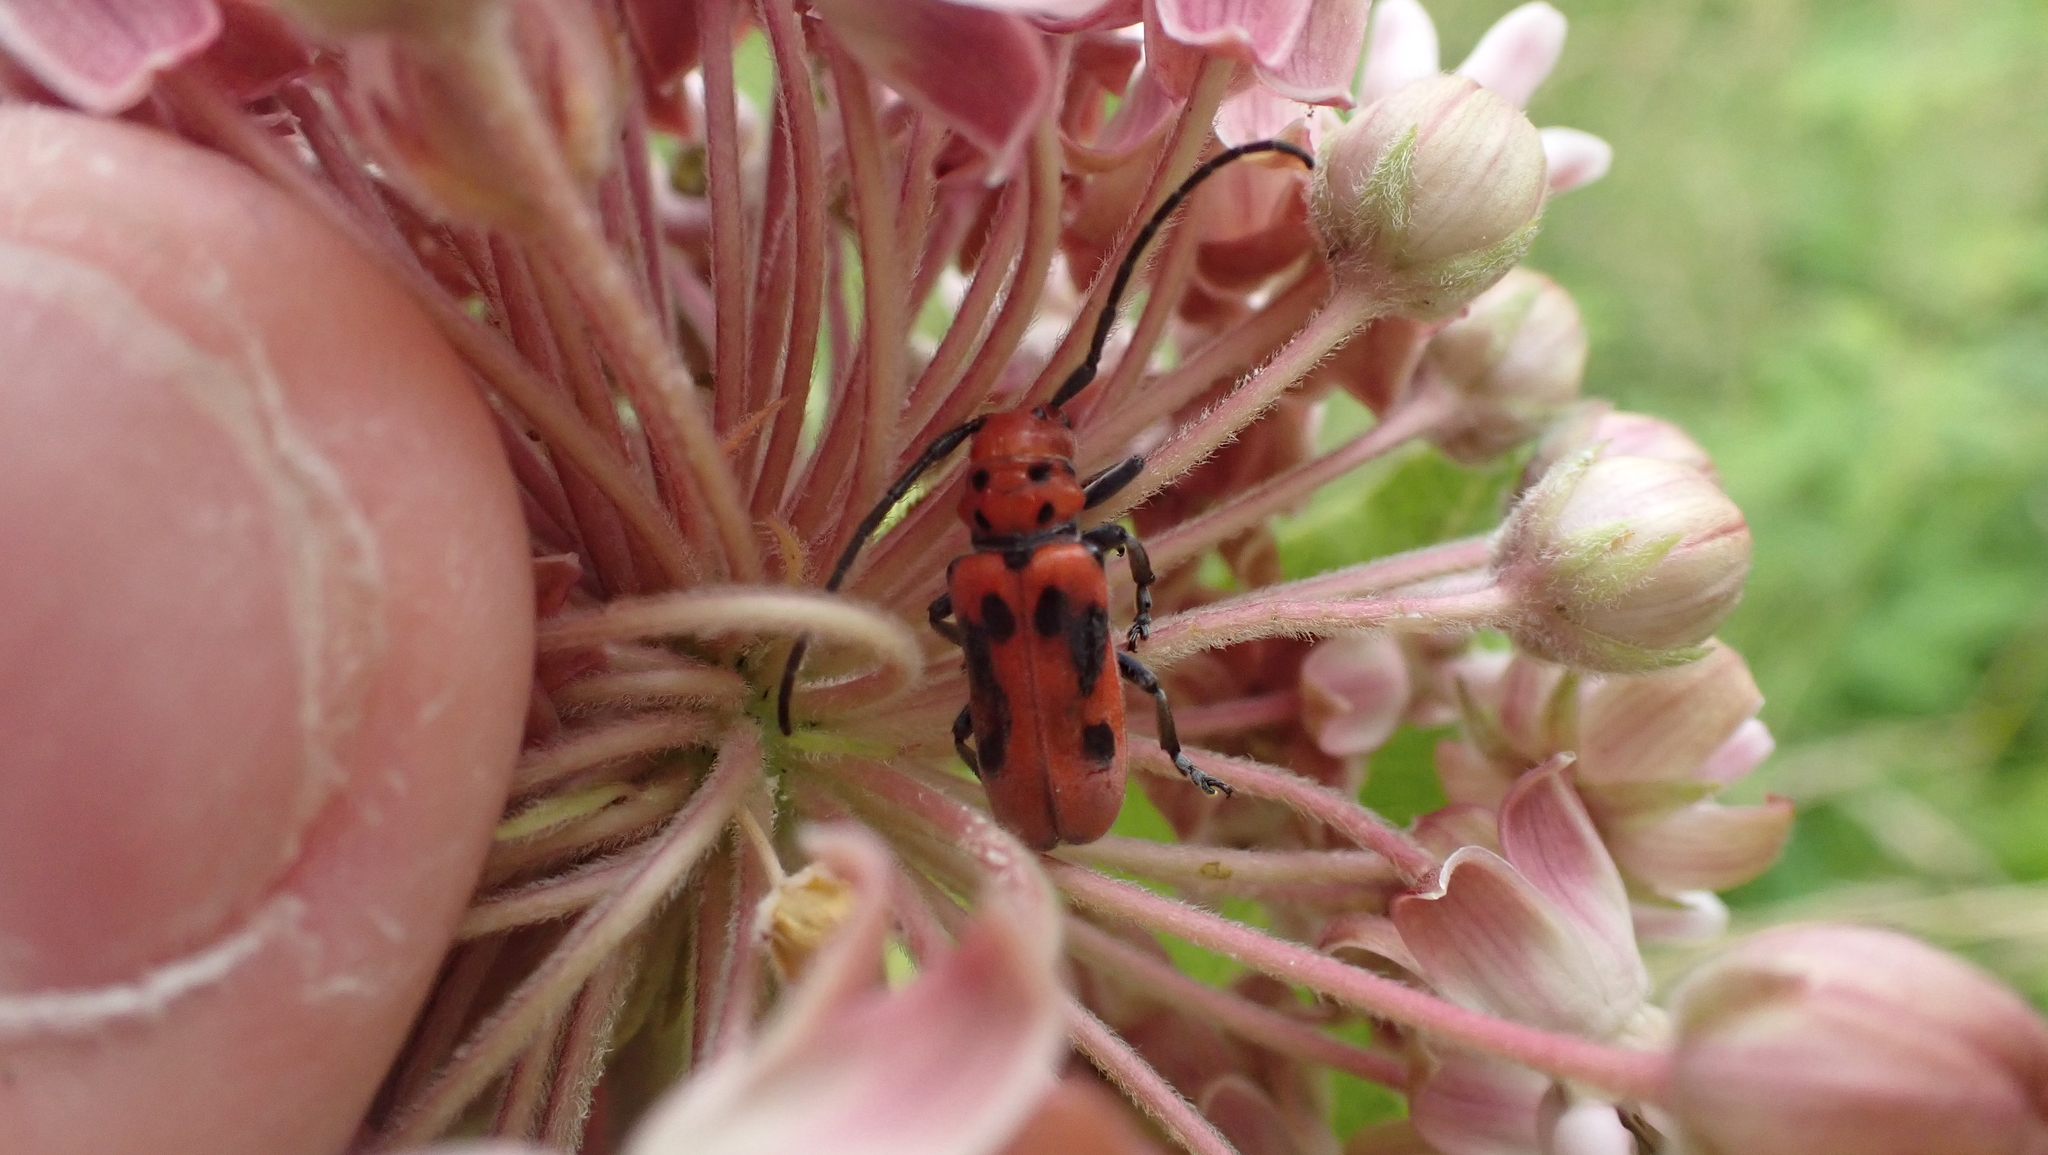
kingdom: Animalia
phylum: Arthropoda
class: Insecta
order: Coleoptera
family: Cerambycidae
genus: Tetraopes
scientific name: Tetraopes tetrophthalmus
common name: Red milkweed beetle
